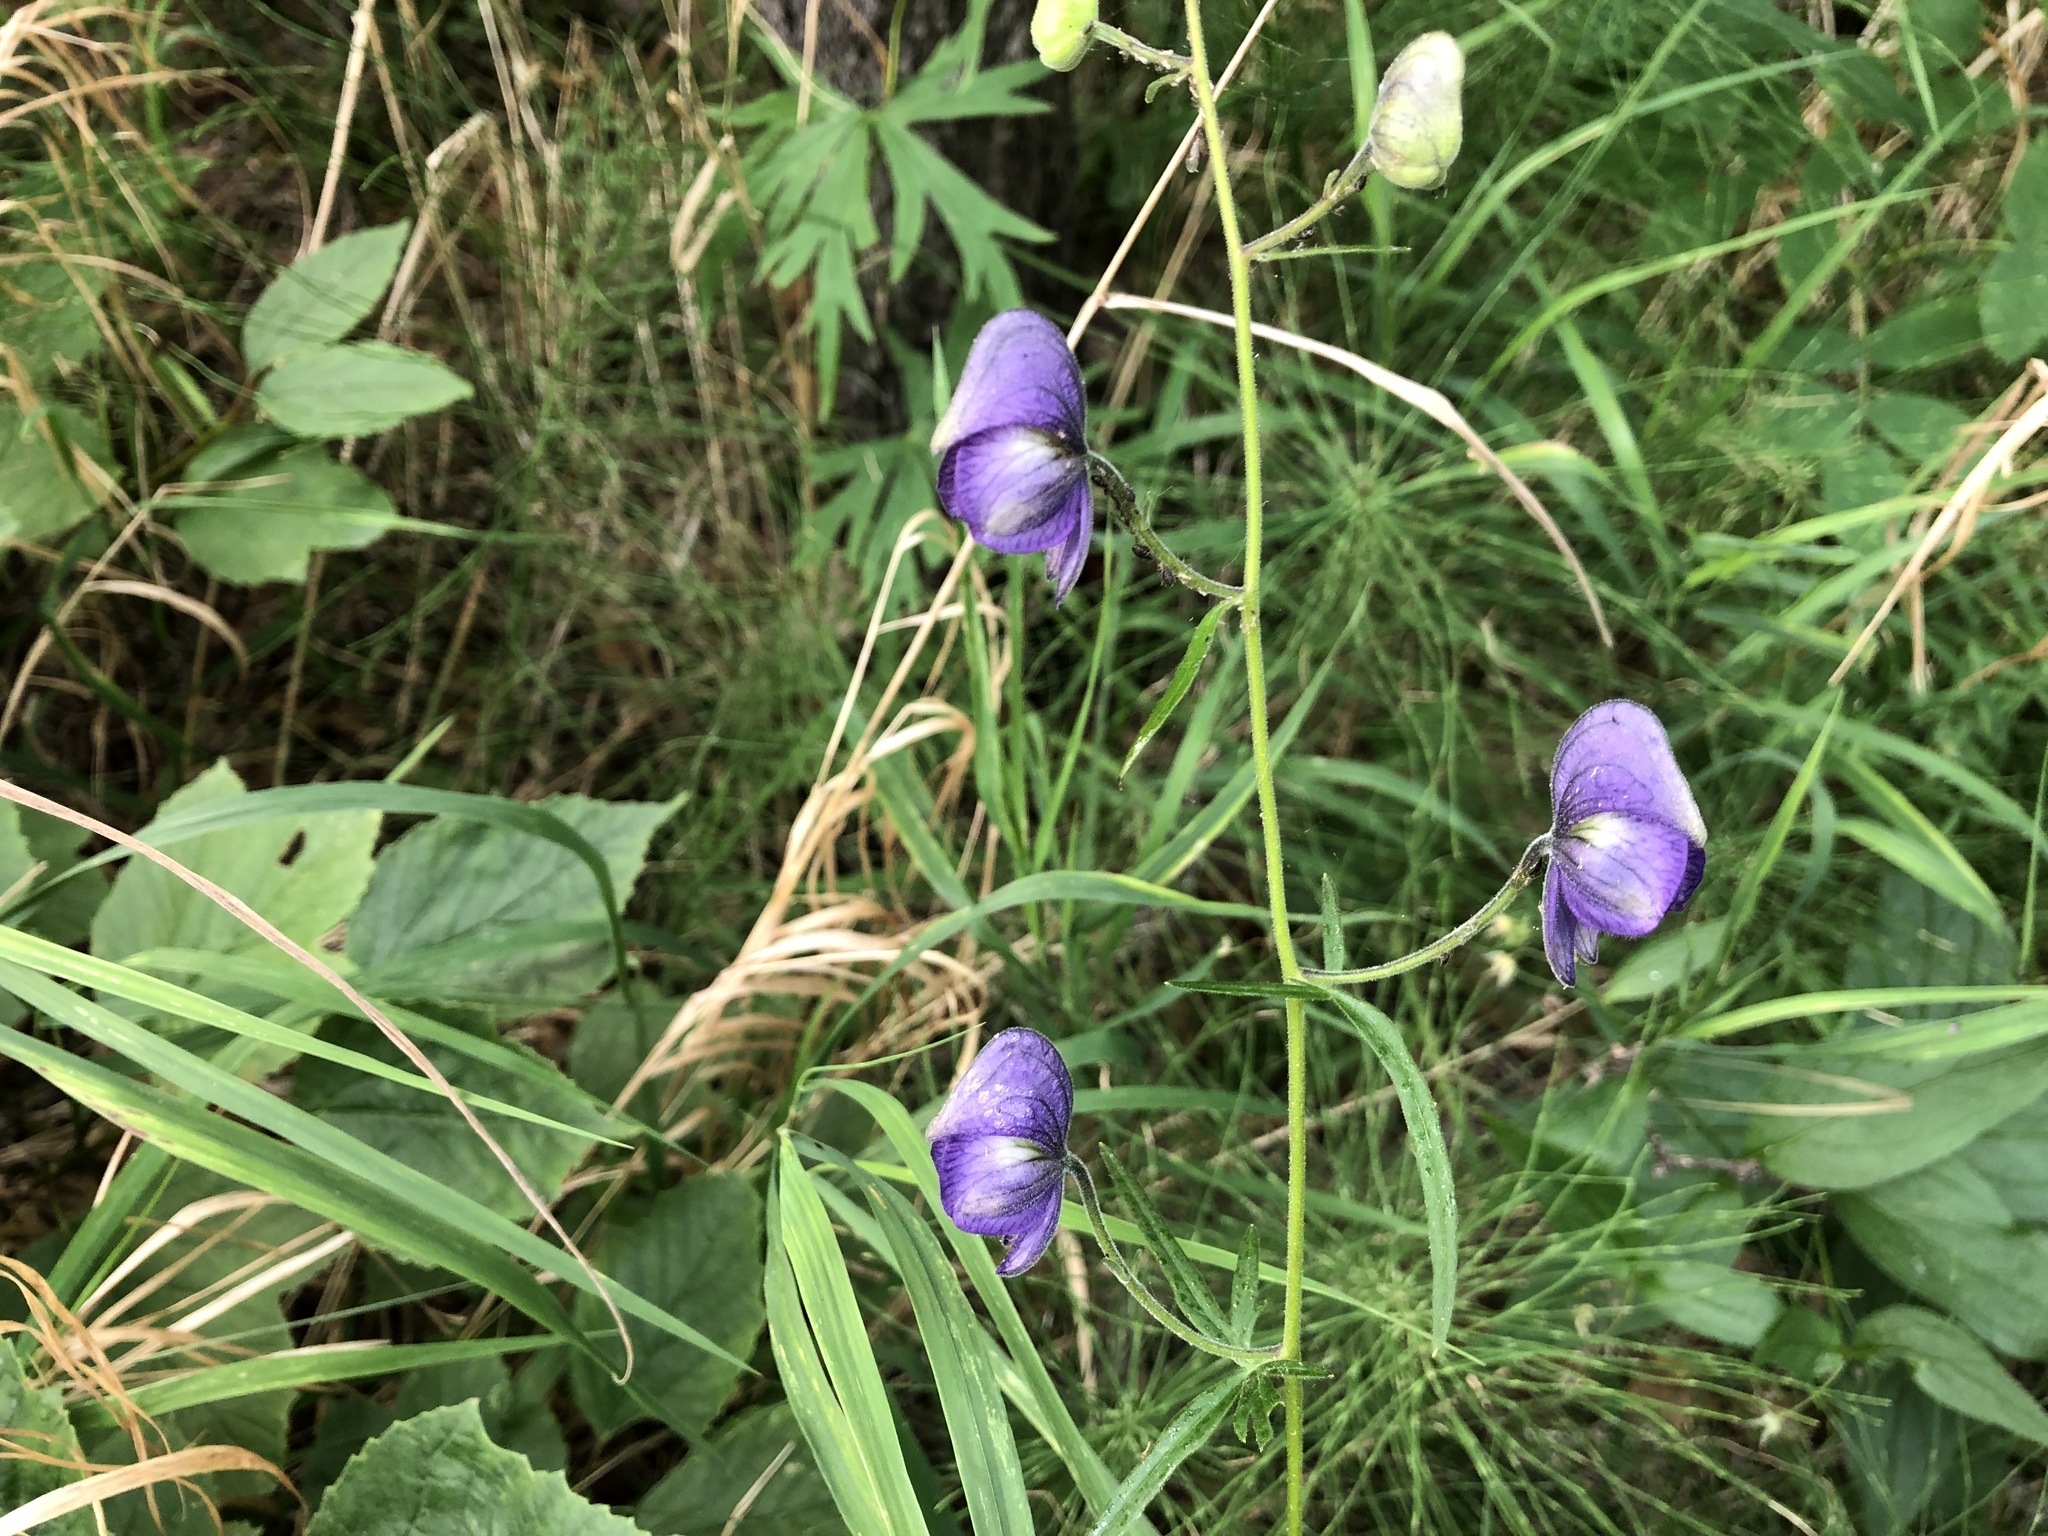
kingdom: Plantae
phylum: Tracheophyta
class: Magnoliopsida
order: Ranunculales
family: Ranunculaceae
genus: Aconitum
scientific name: Aconitum delphiniifolium
